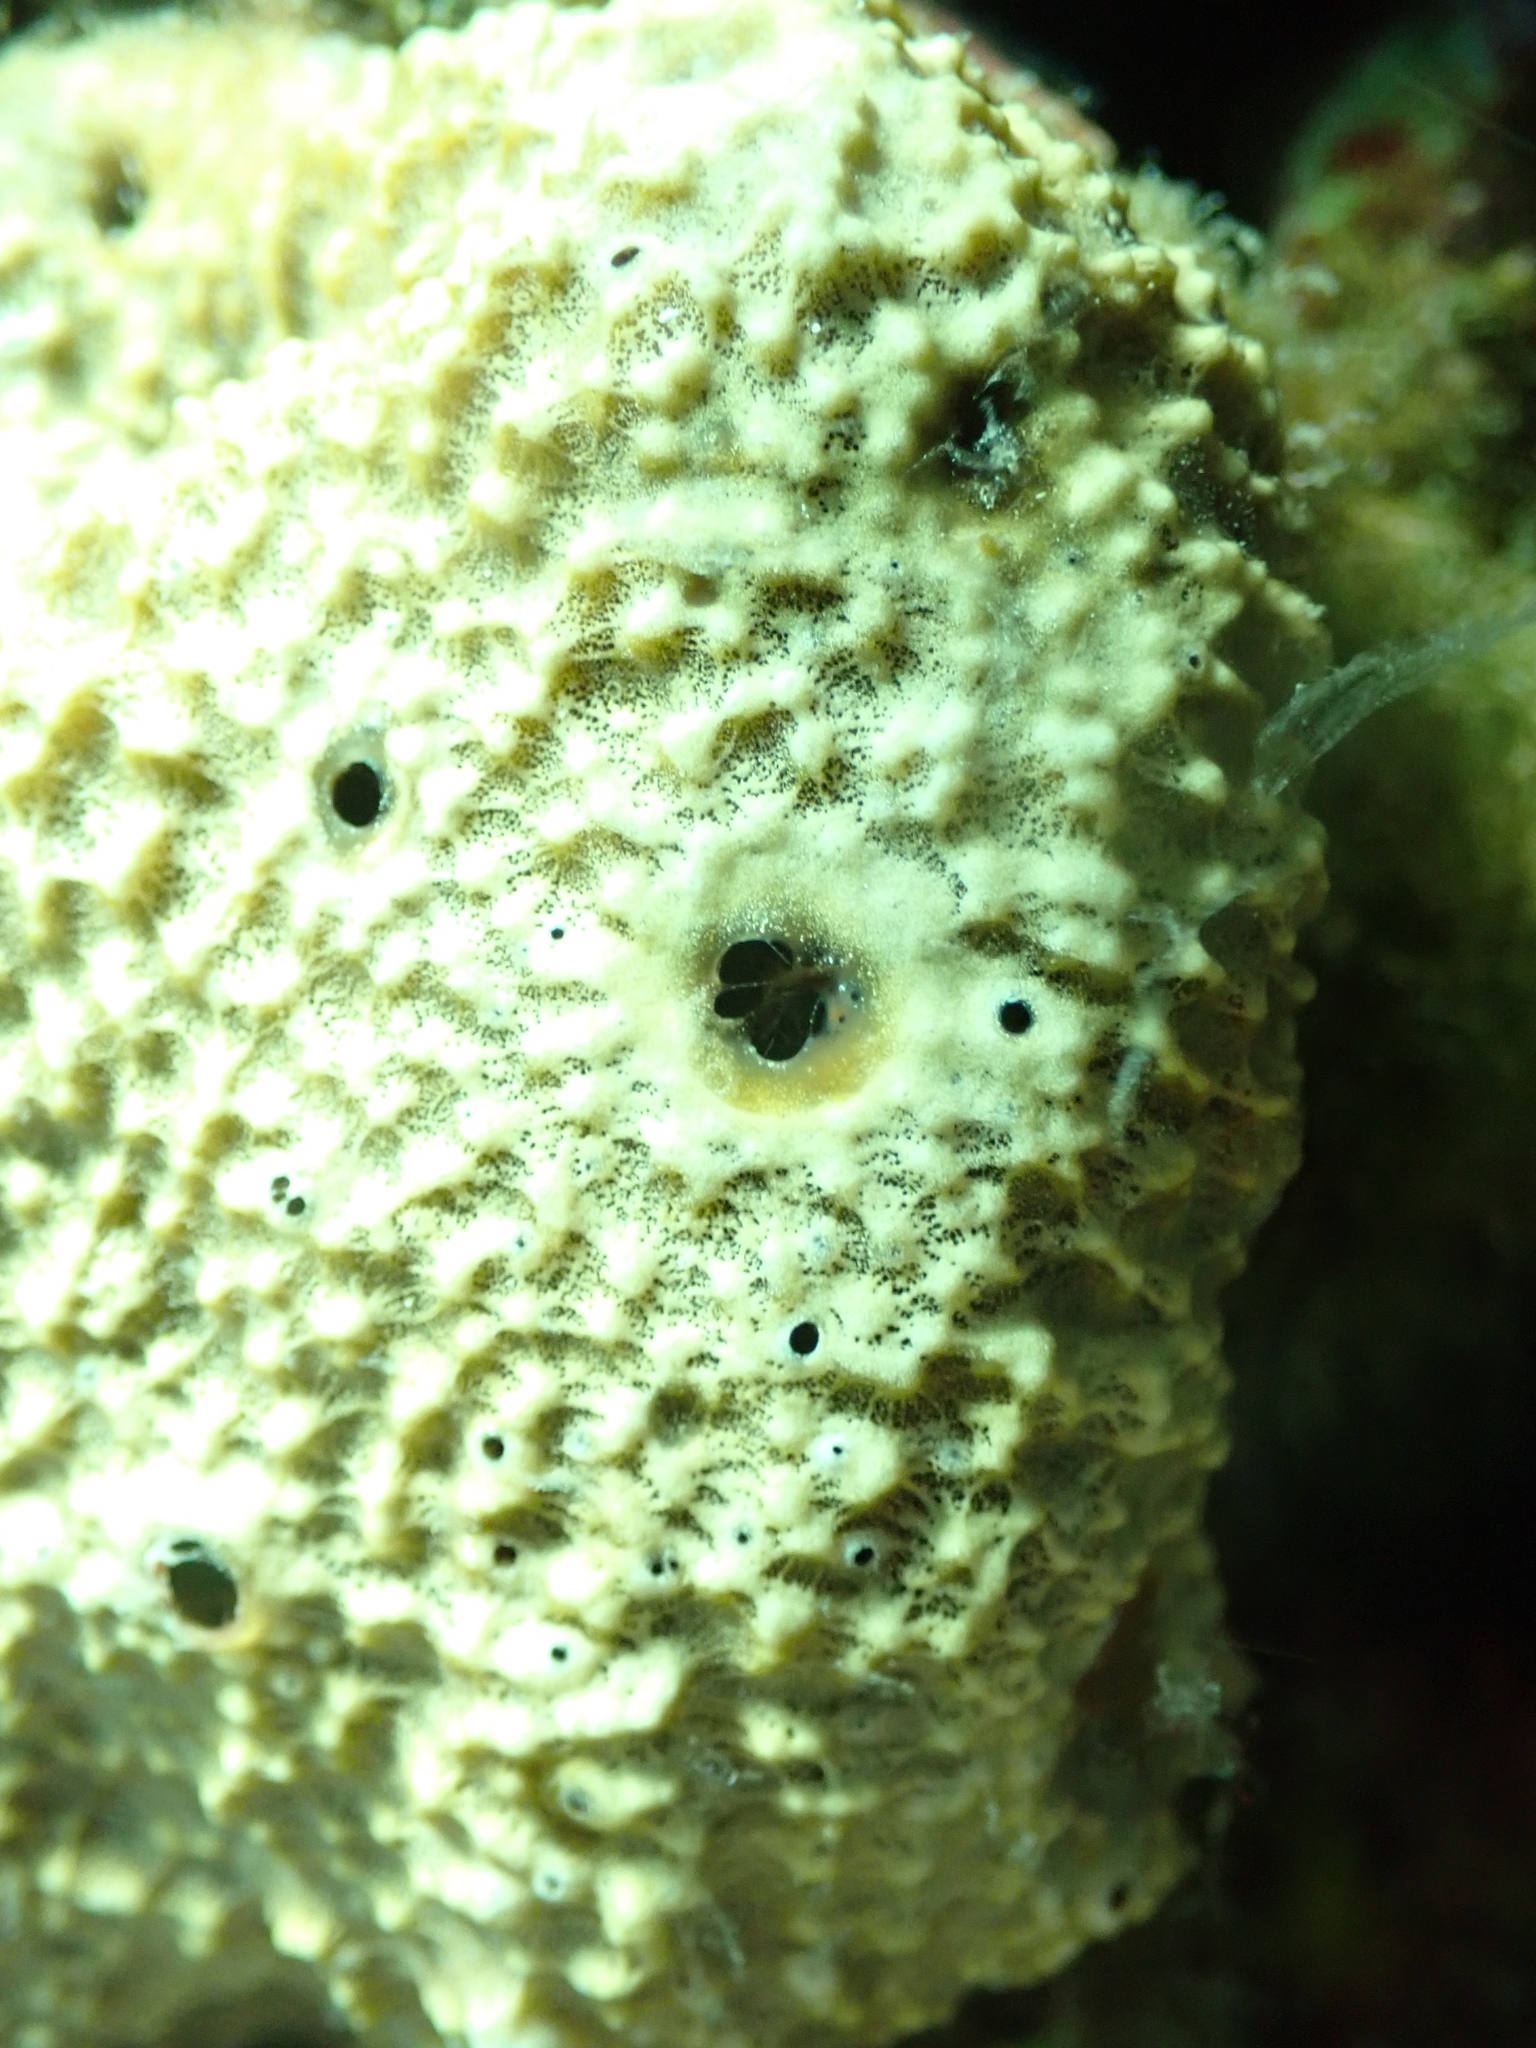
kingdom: Animalia
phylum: Porifera
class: Demospongiae
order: Dictyoceratida
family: Irciniidae
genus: Sarcotragus
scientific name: Sarcotragus fasciculatus
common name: Stinker sponge
